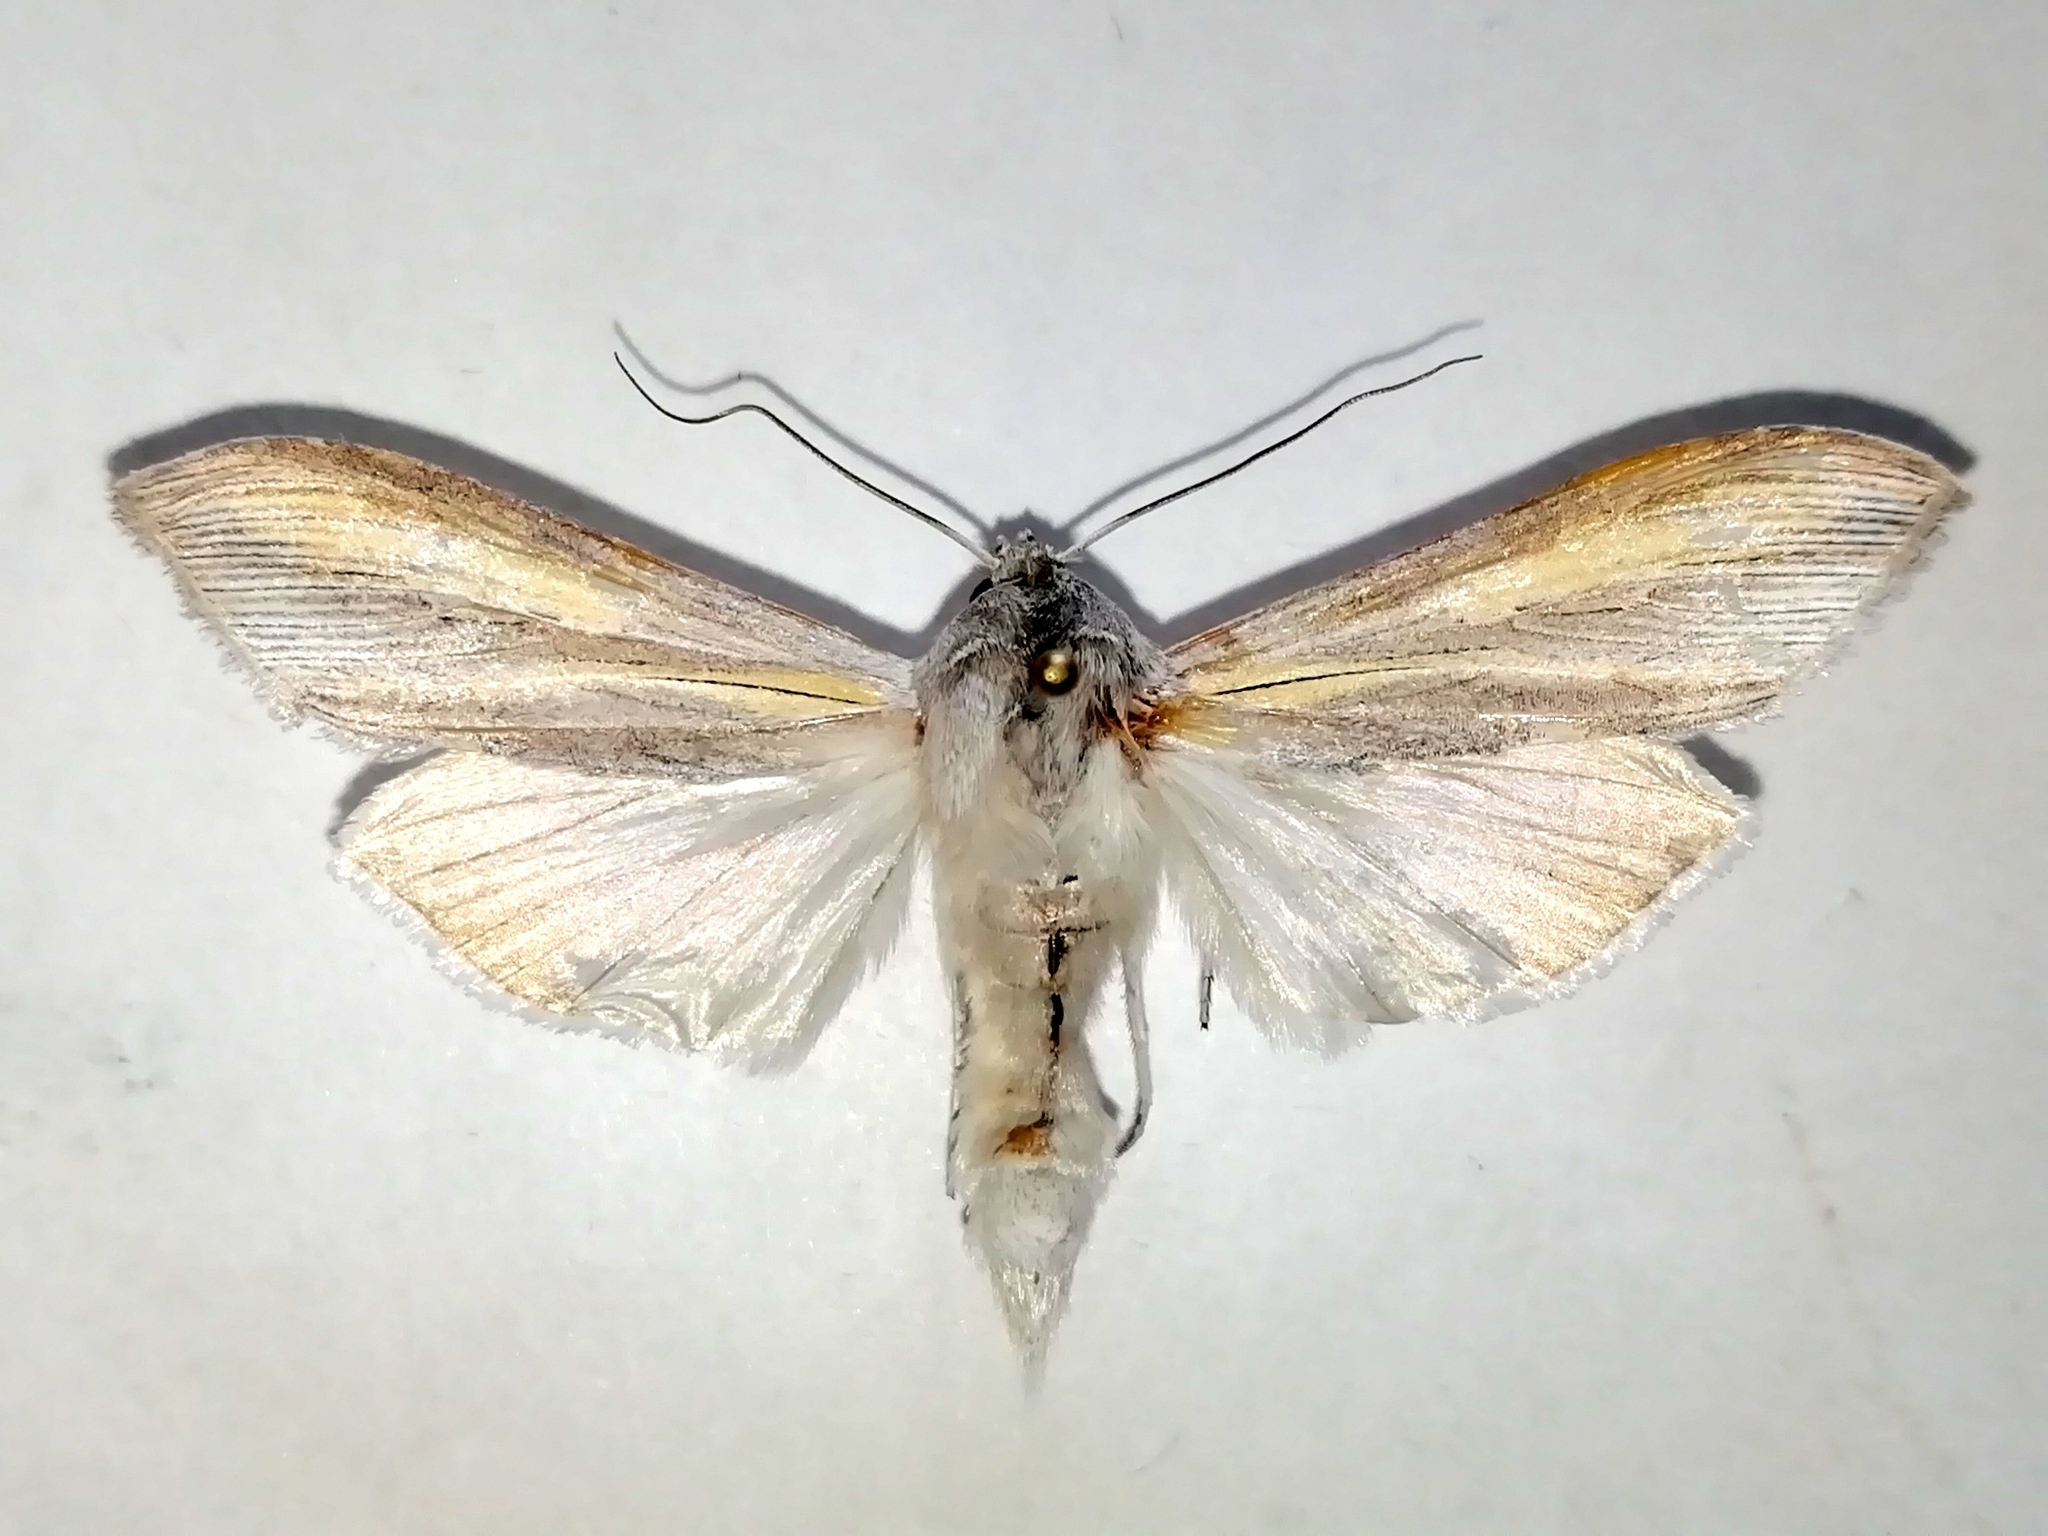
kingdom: Animalia
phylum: Arthropoda
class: Insecta
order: Lepidoptera
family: Noctuidae
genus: Cucullia
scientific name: Cucullia biornata
